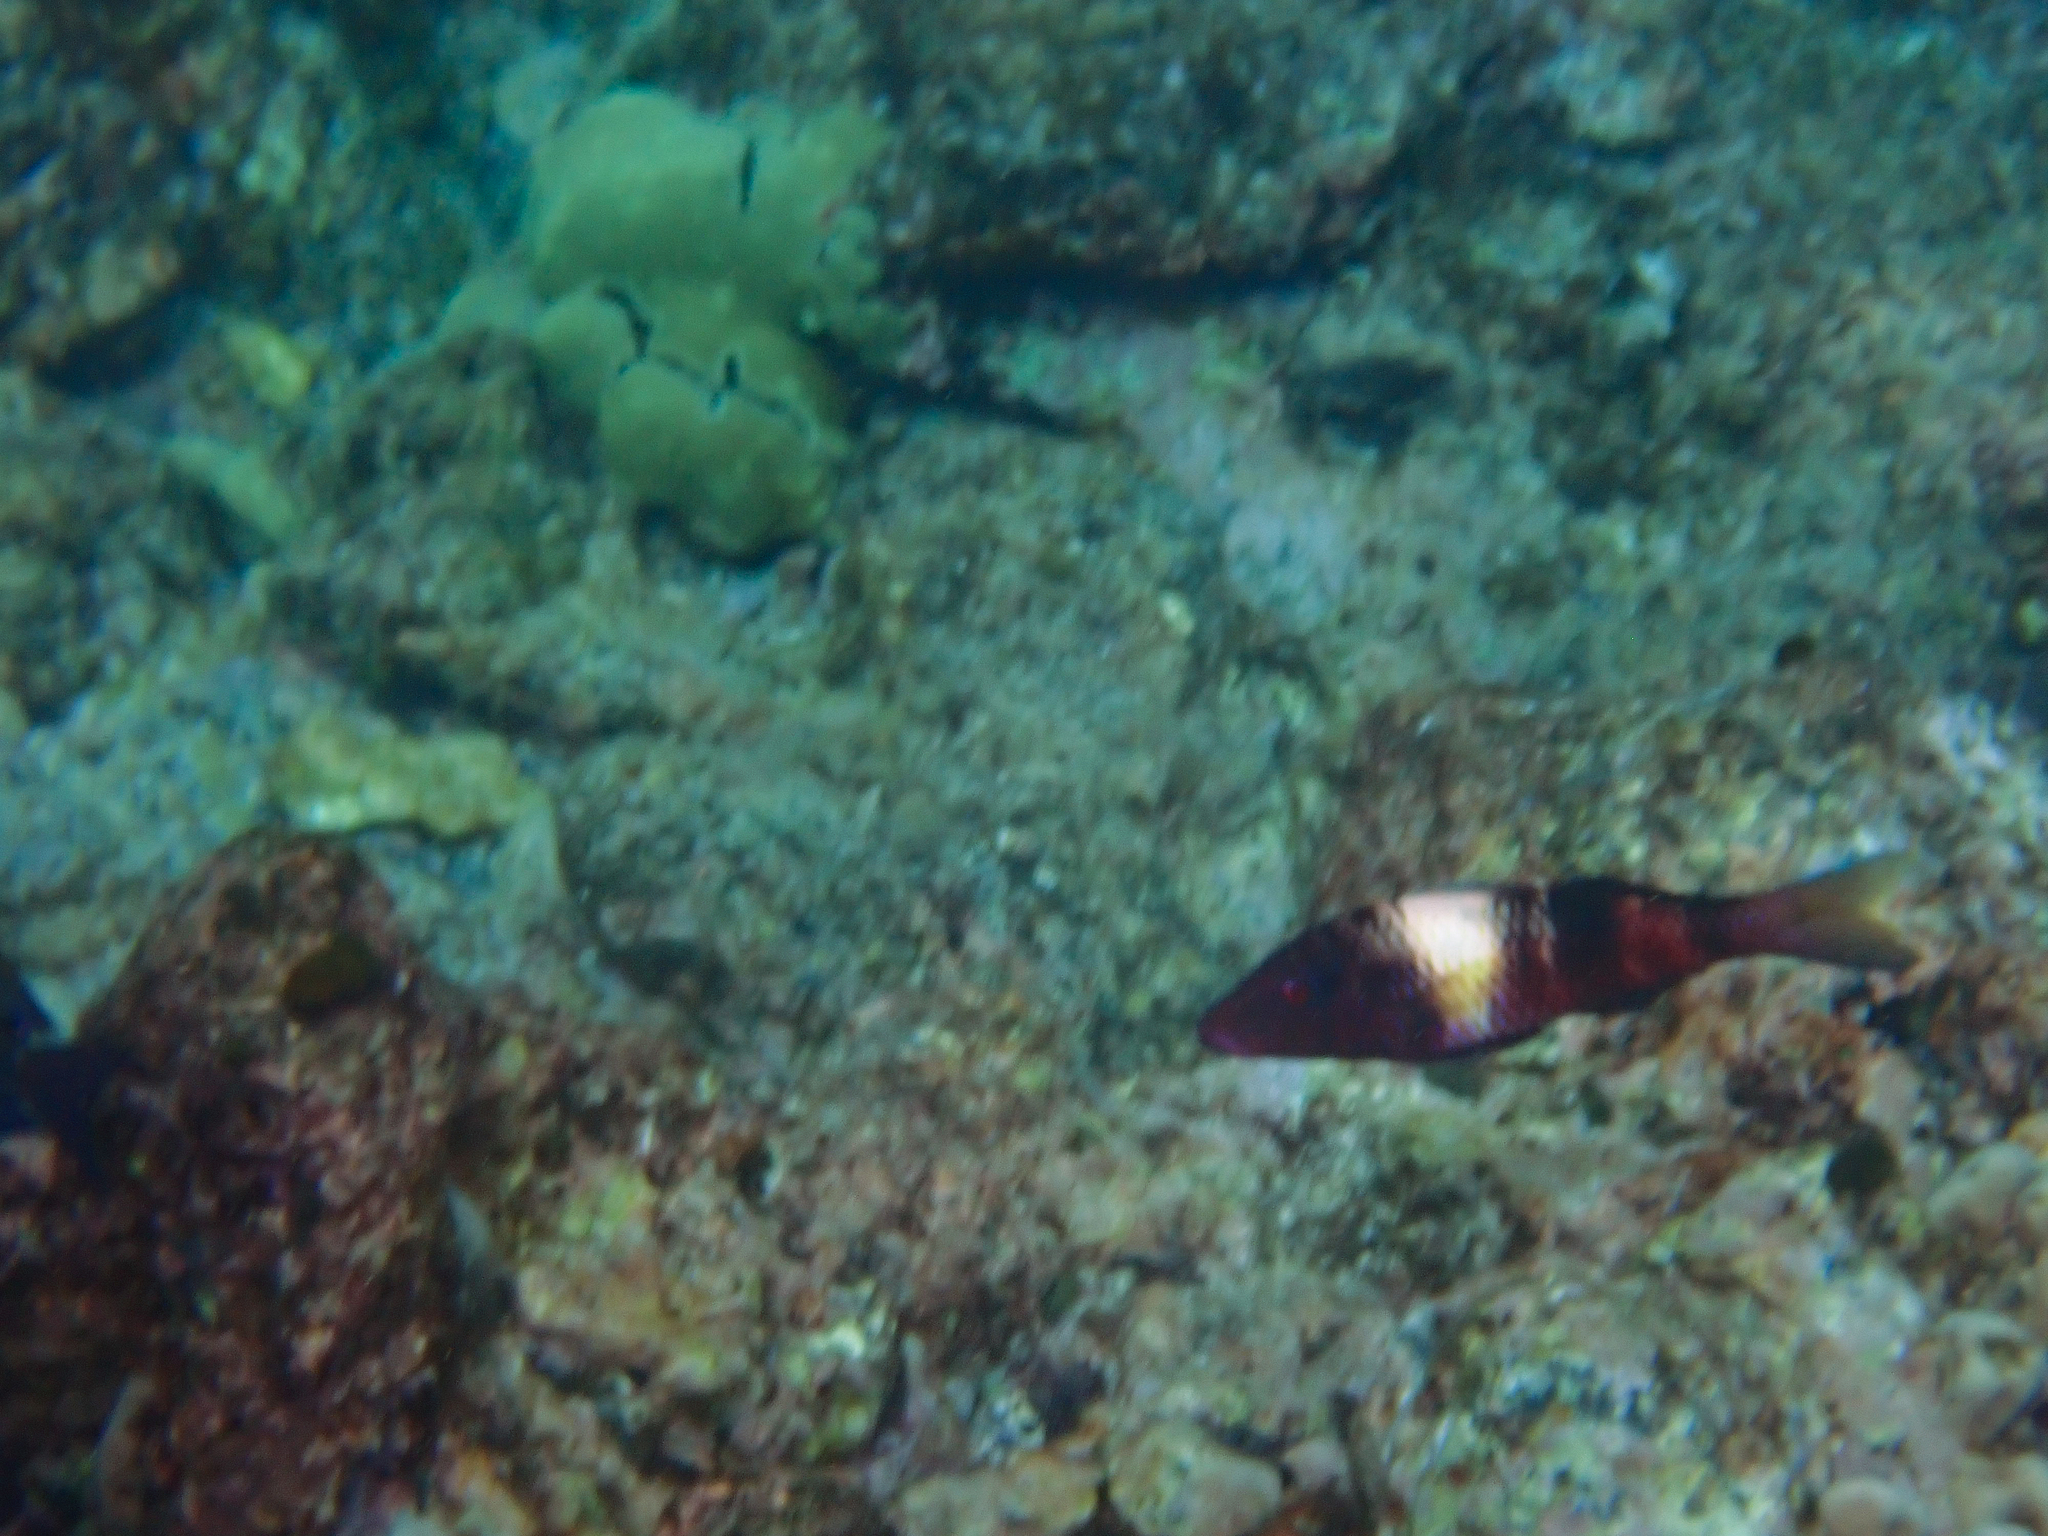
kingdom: Animalia
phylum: Chordata
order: Perciformes
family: Mullidae
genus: Parupeneus
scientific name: Parupeneus multifasciatus
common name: Manybar goatfish
